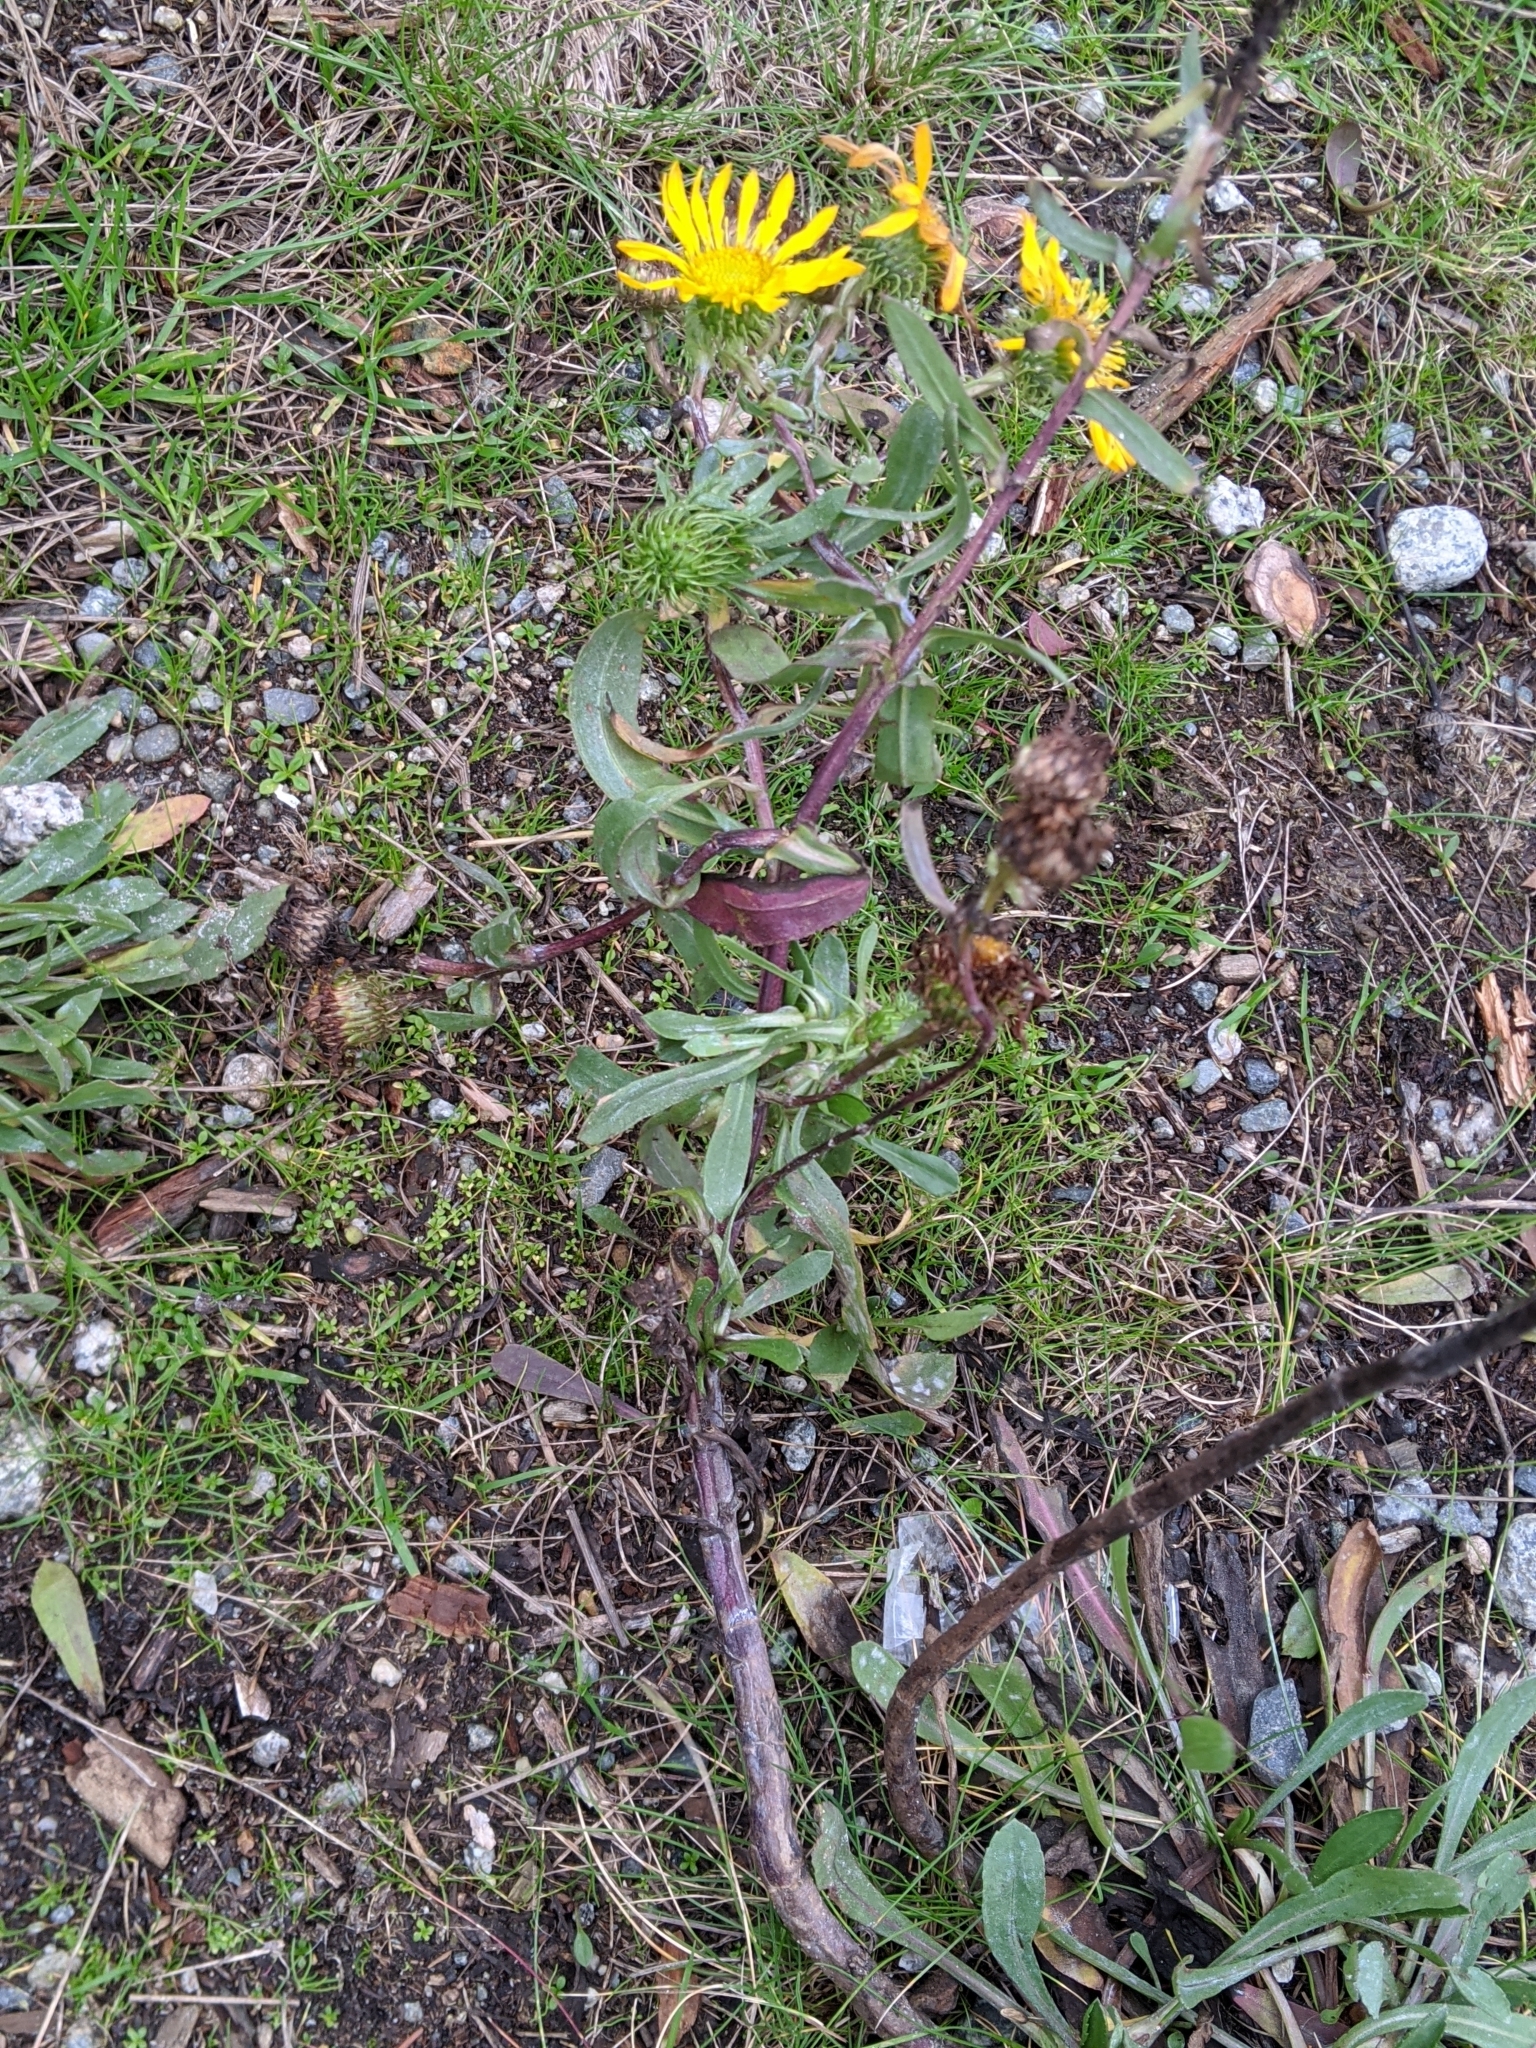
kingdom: Plantae
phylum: Tracheophyta
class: Magnoliopsida
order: Asterales
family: Asteraceae
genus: Grindelia
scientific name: Grindelia hirsutula
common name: Hairy gumweed
